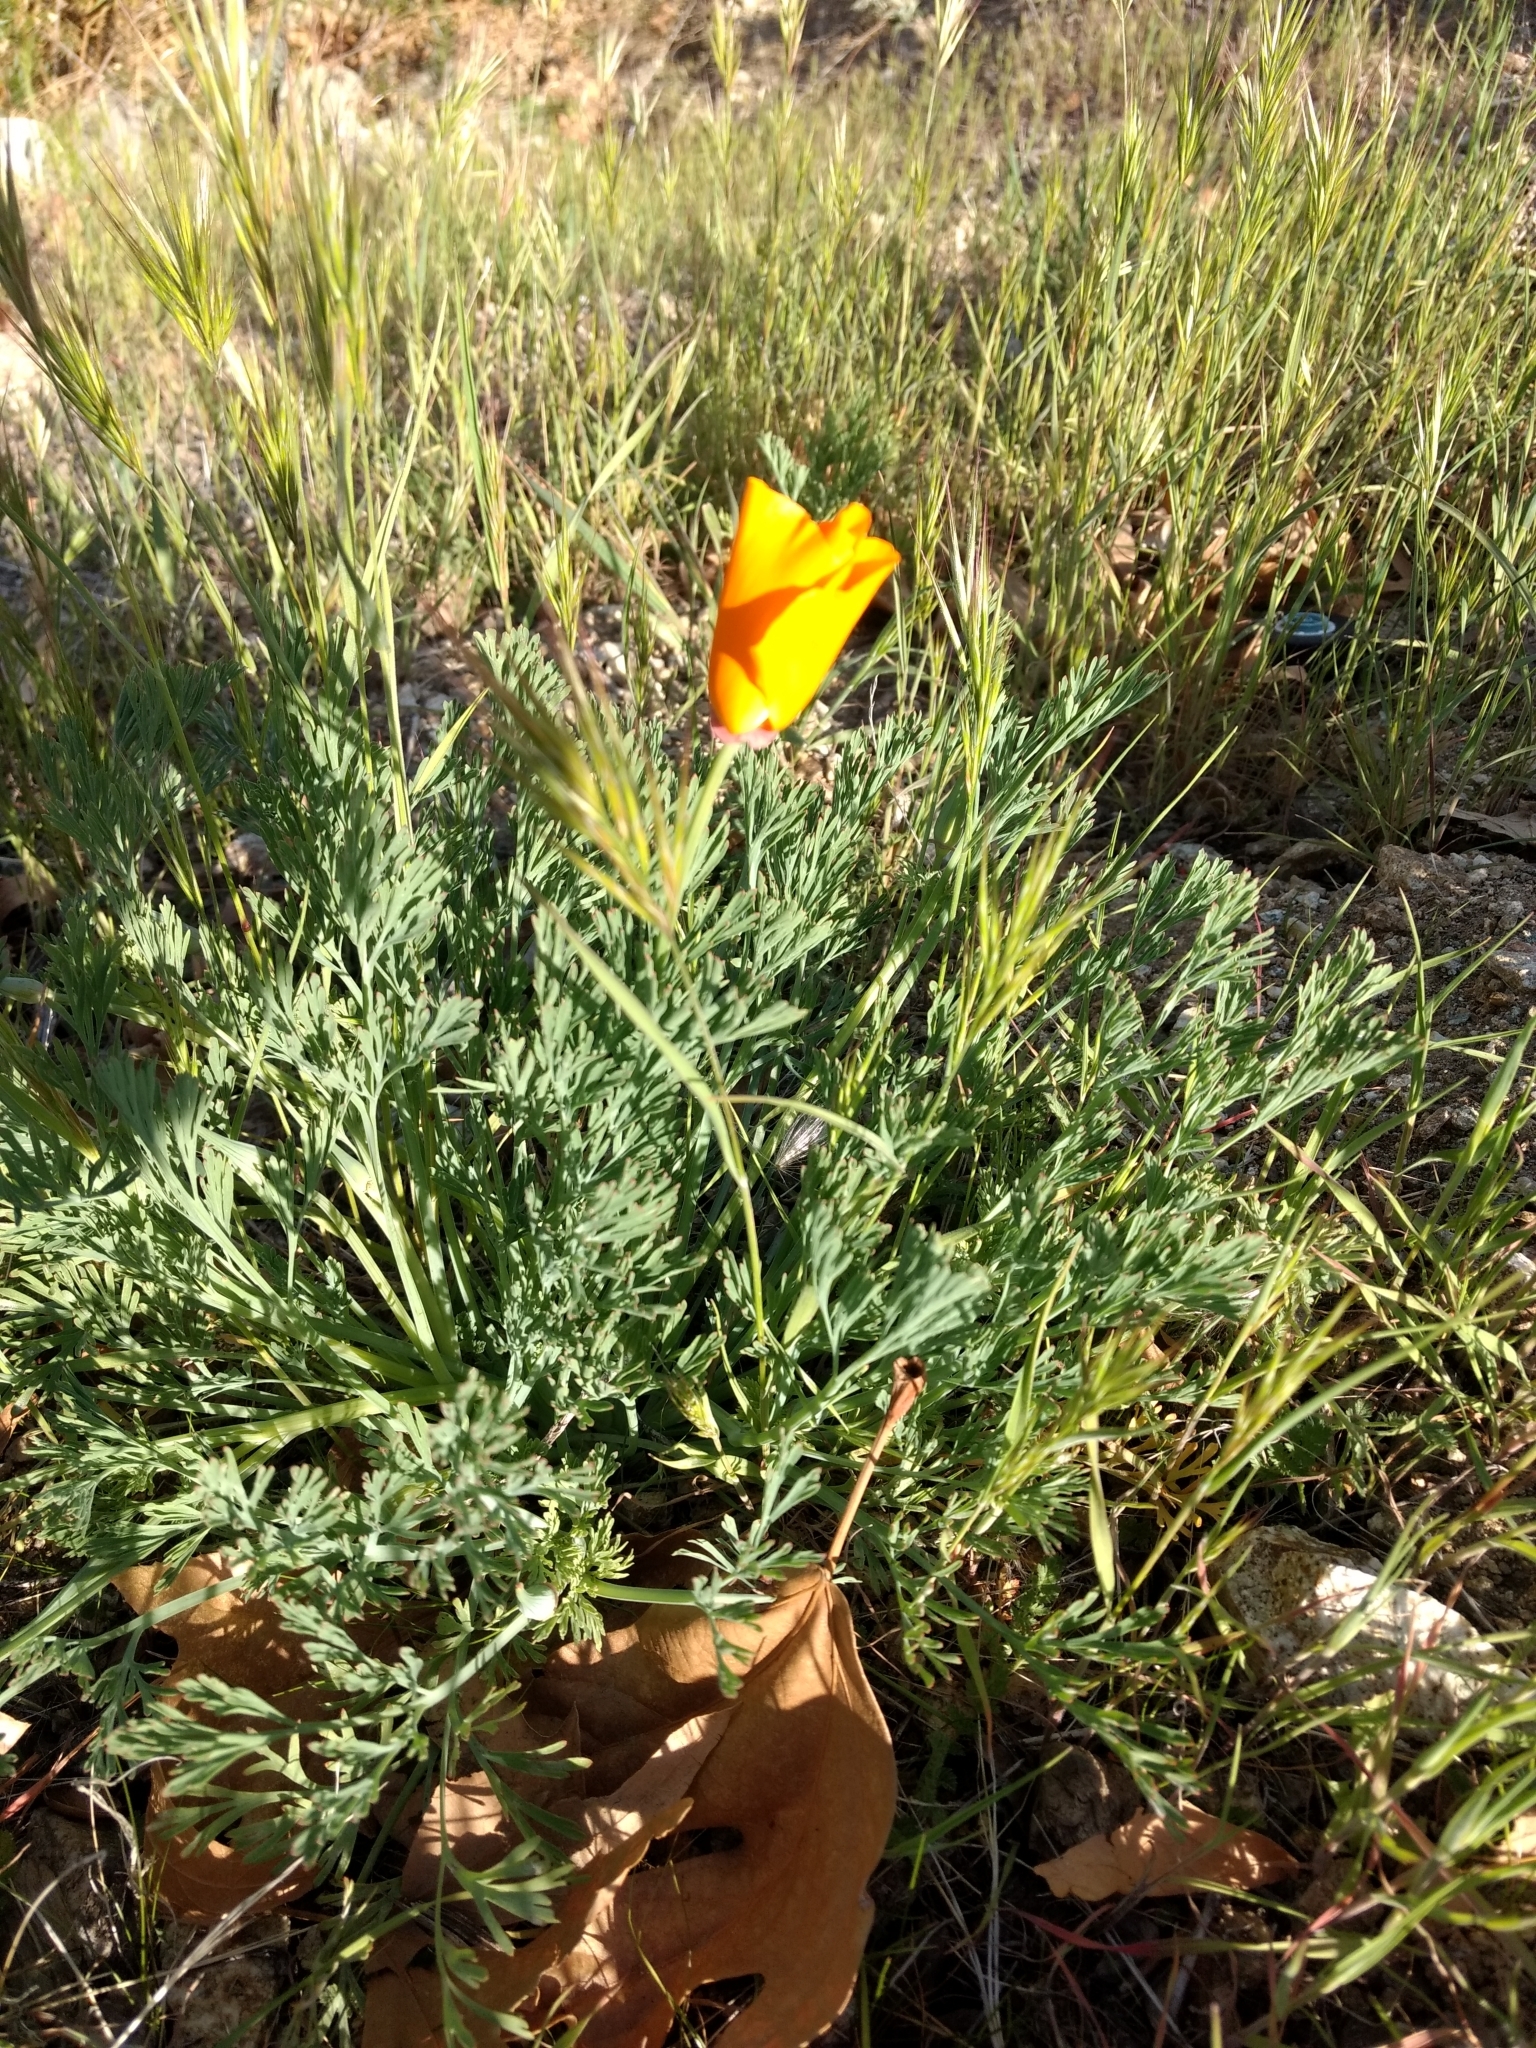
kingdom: Plantae
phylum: Tracheophyta
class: Magnoliopsida
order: Ranunculales
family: Papaveraceae
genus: Eschscholzia
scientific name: Eschscholzia californica
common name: California poppy
